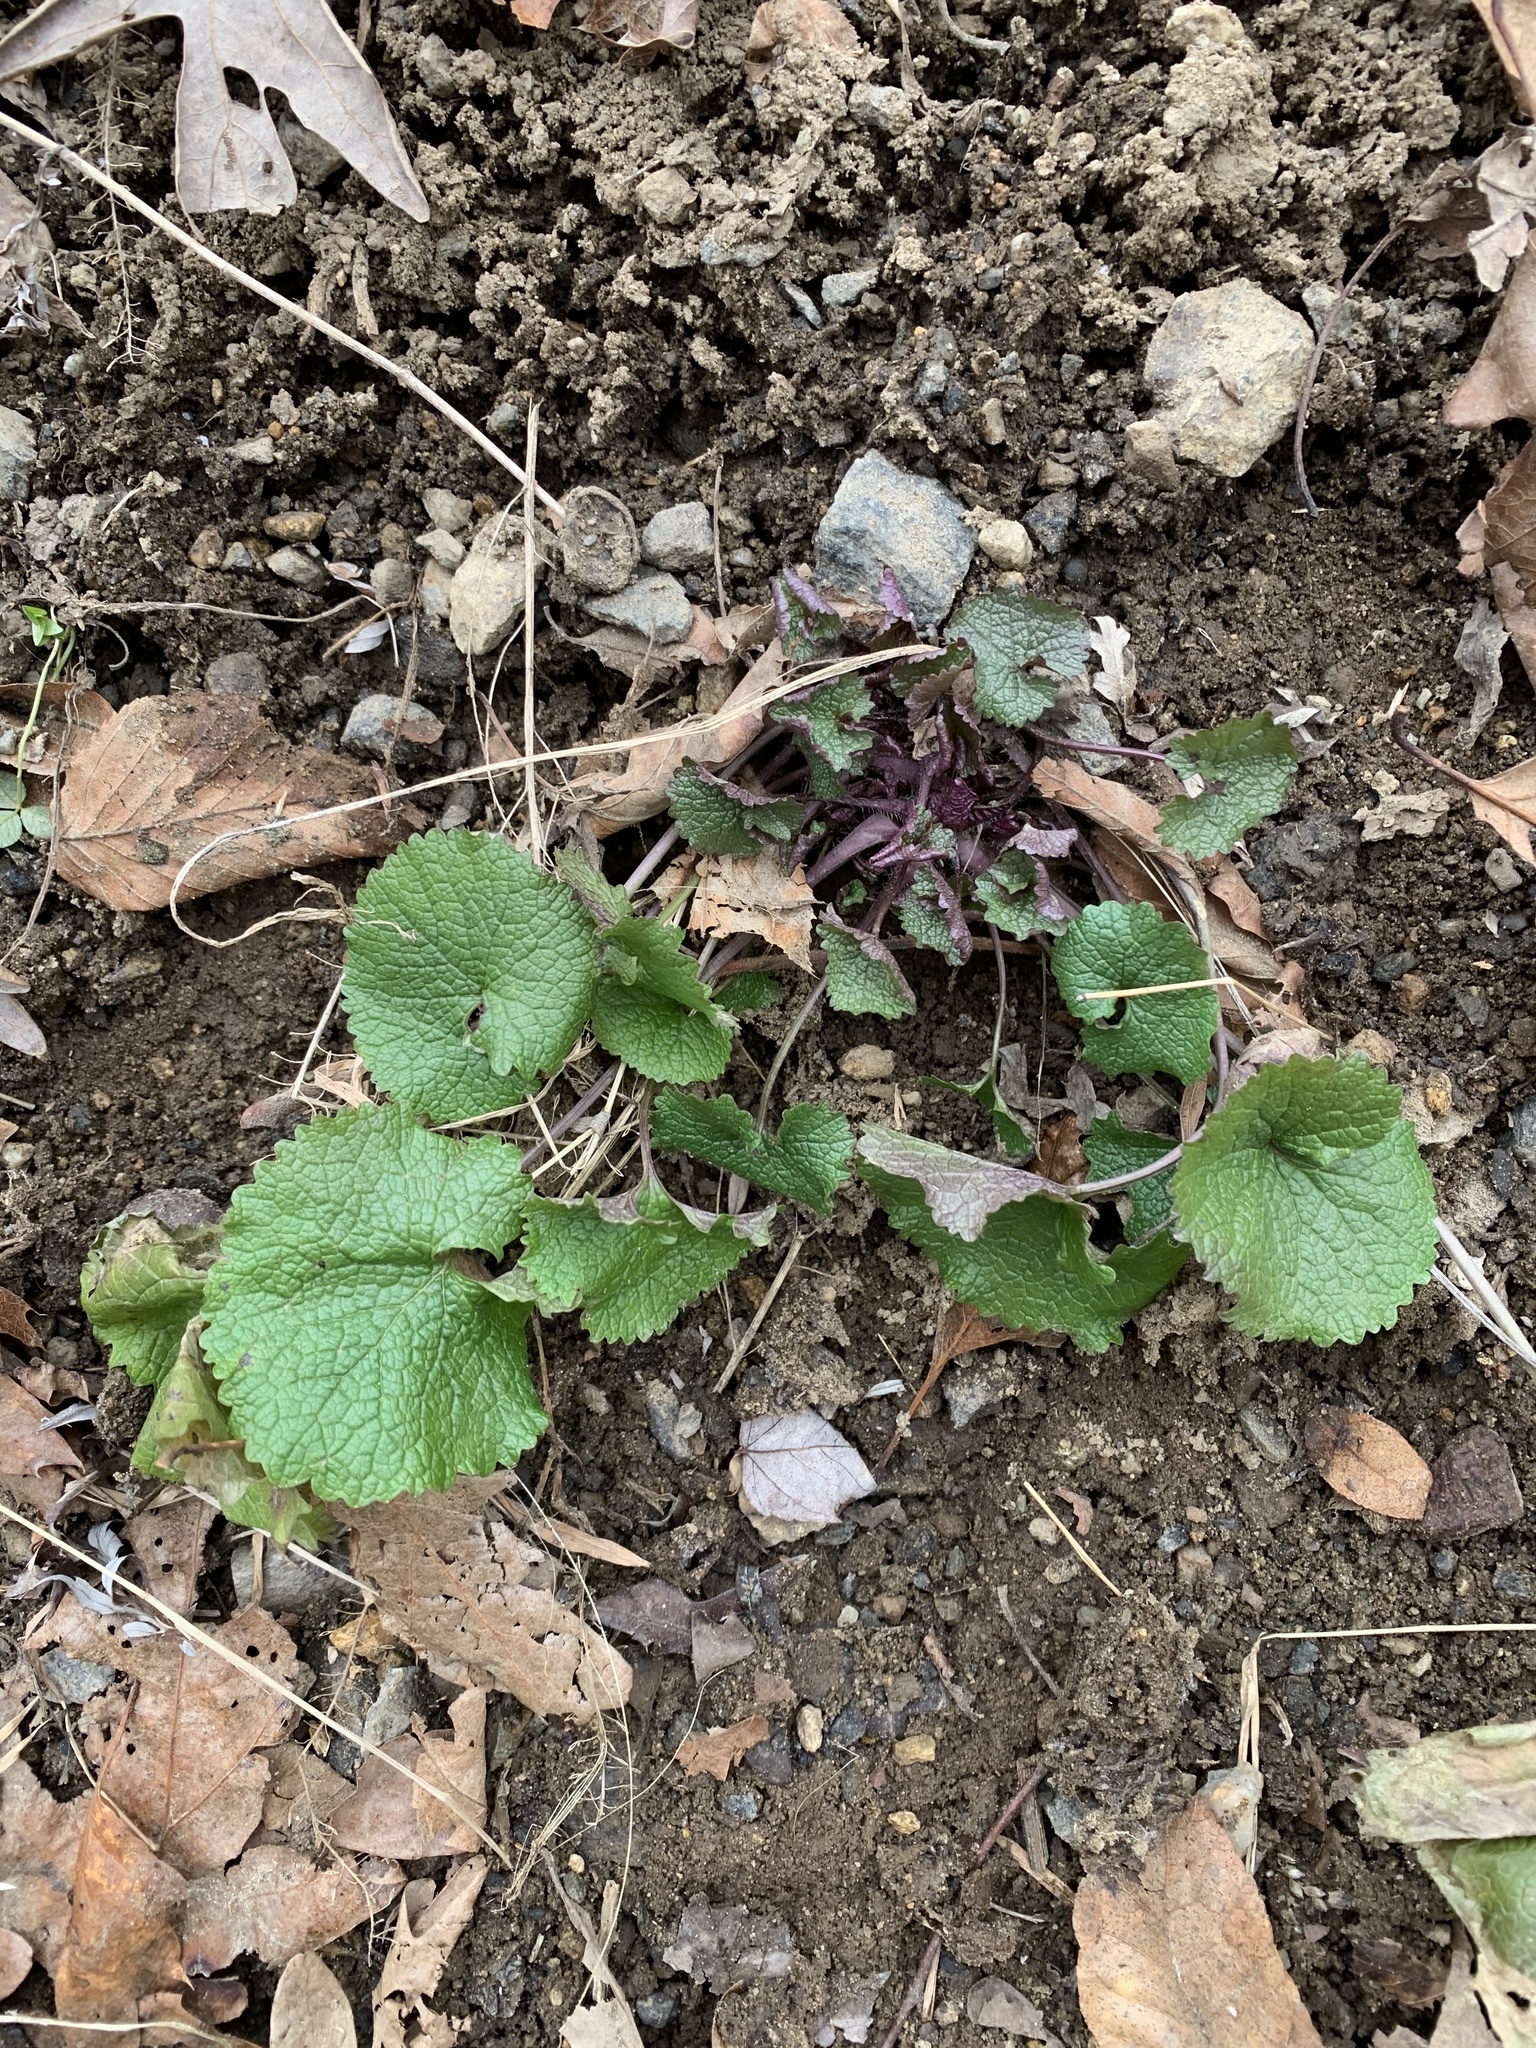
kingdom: Plantae
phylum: Tracheophyta
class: Magnoliopsida
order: Brassicales
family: Brassicaceae
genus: Alliaria
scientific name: Alliaria petiolata
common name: Garlic mustard
